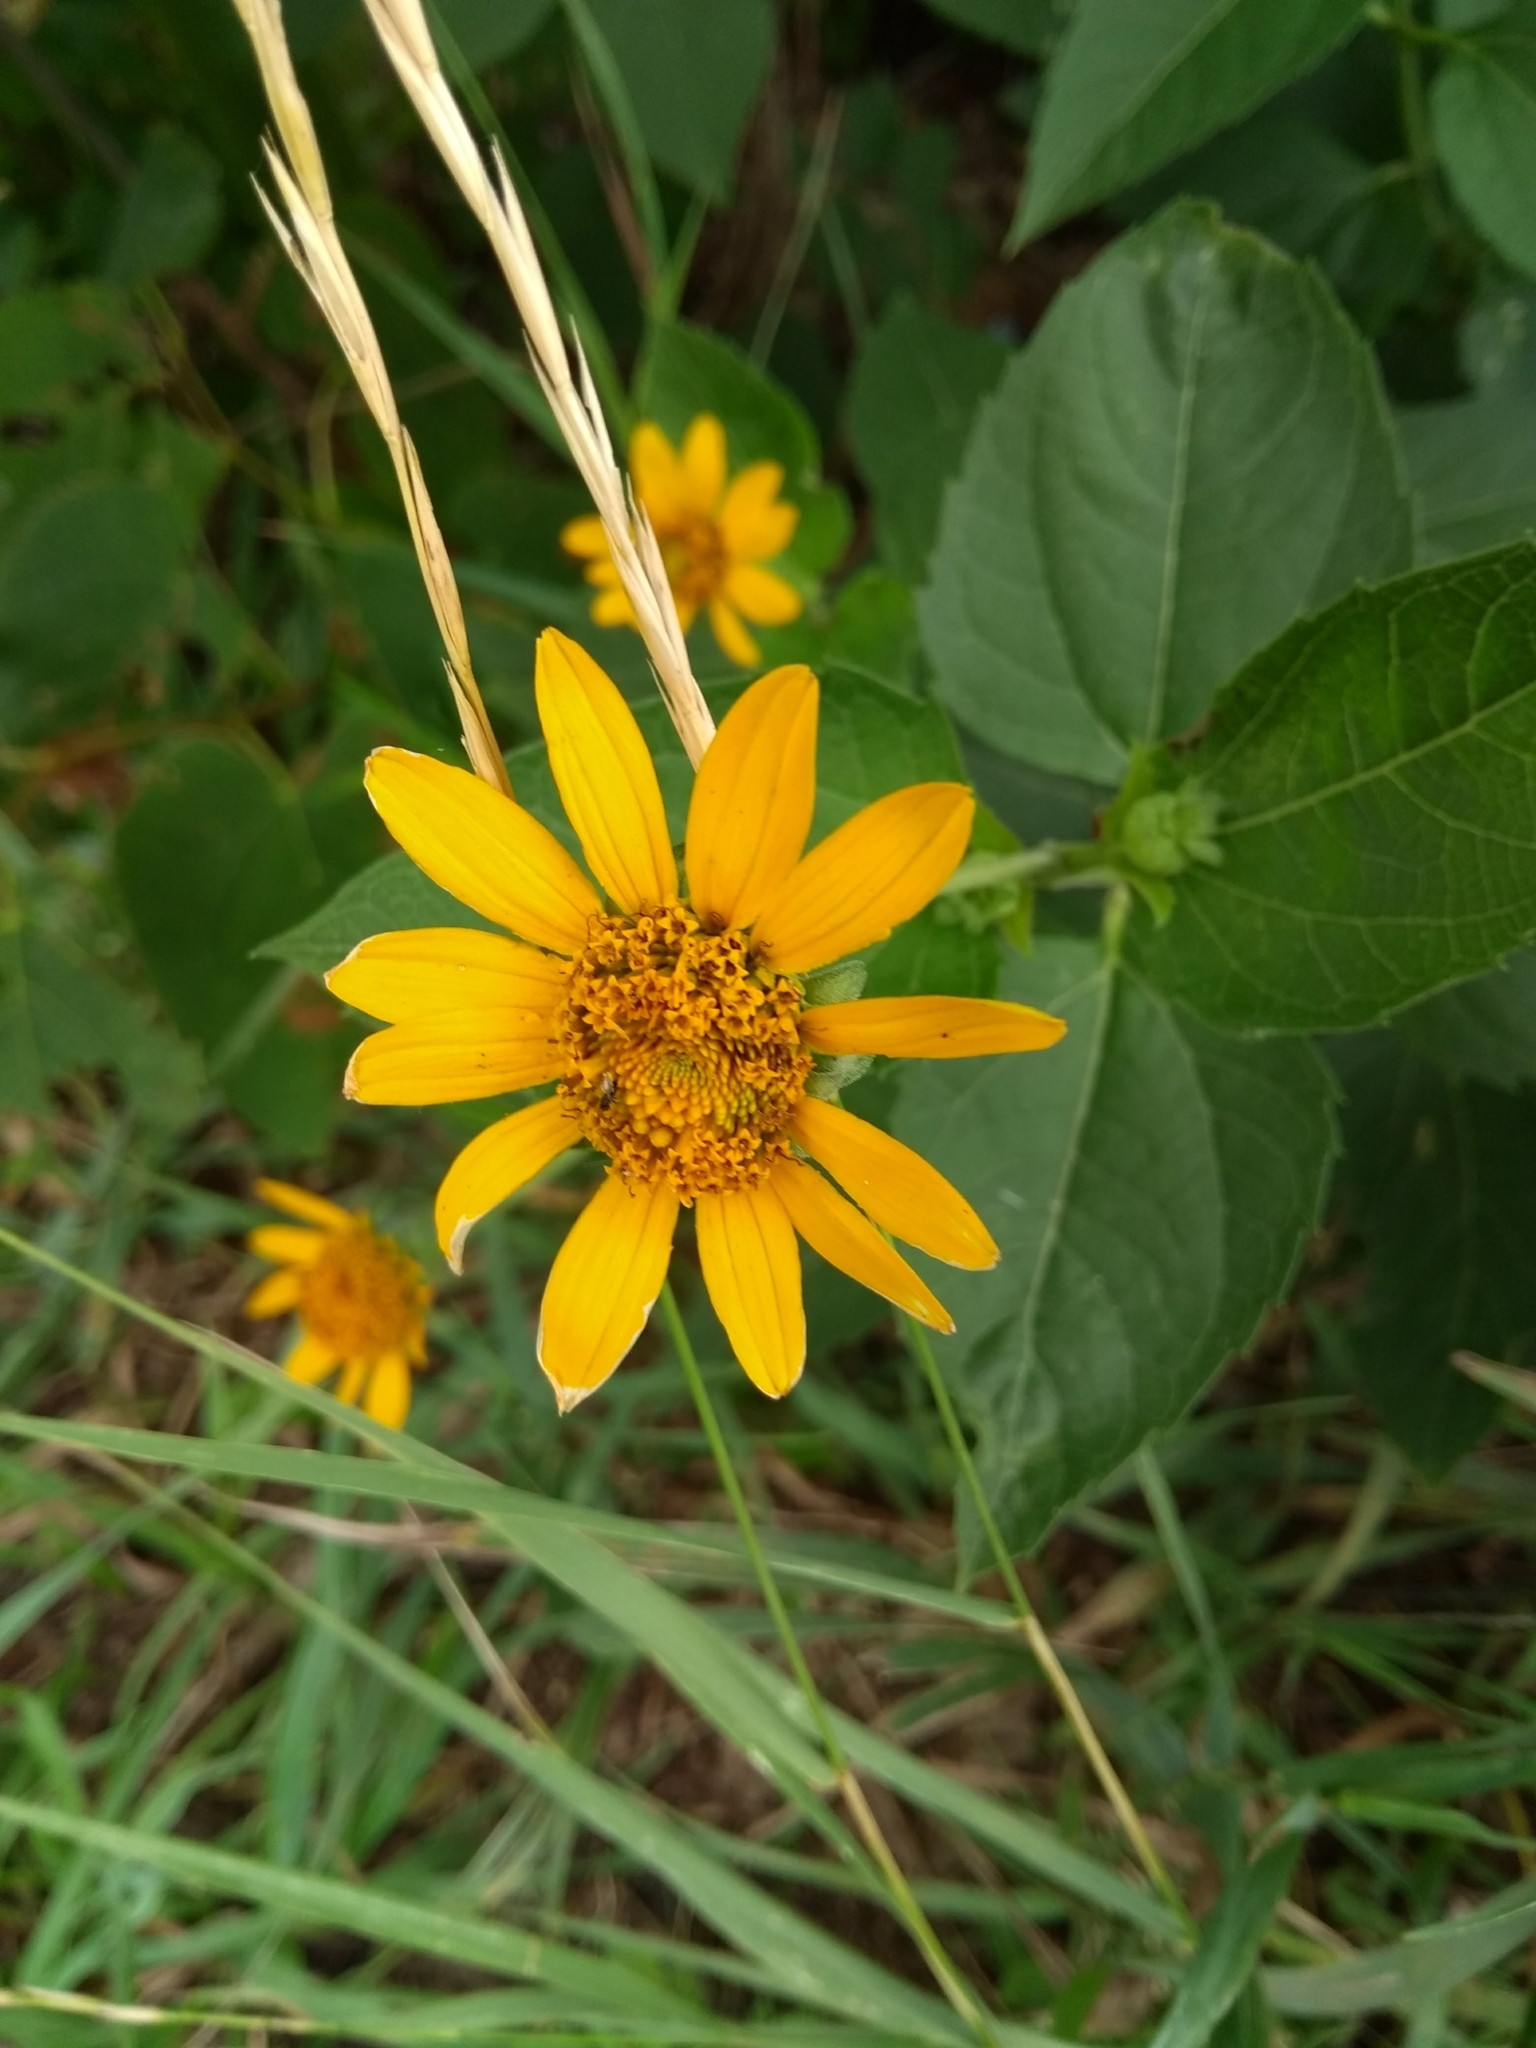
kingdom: Plantae
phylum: Tracheophyta
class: Magnoliopsida
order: Asterales
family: Asteraceae
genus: Heliopsis
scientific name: Heliopsis helianthoides
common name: False sunflower
